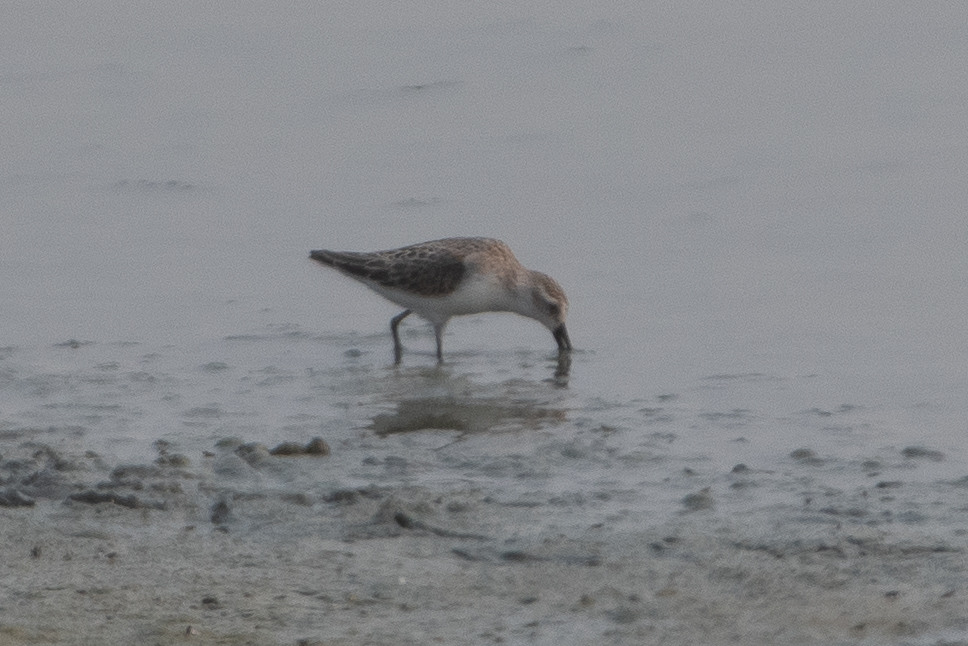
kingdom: Animalia
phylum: Chordata
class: Aves
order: Charadriiformes
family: Scolopacidae
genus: Calidris
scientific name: Calidris mauri
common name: Western sandpiper
